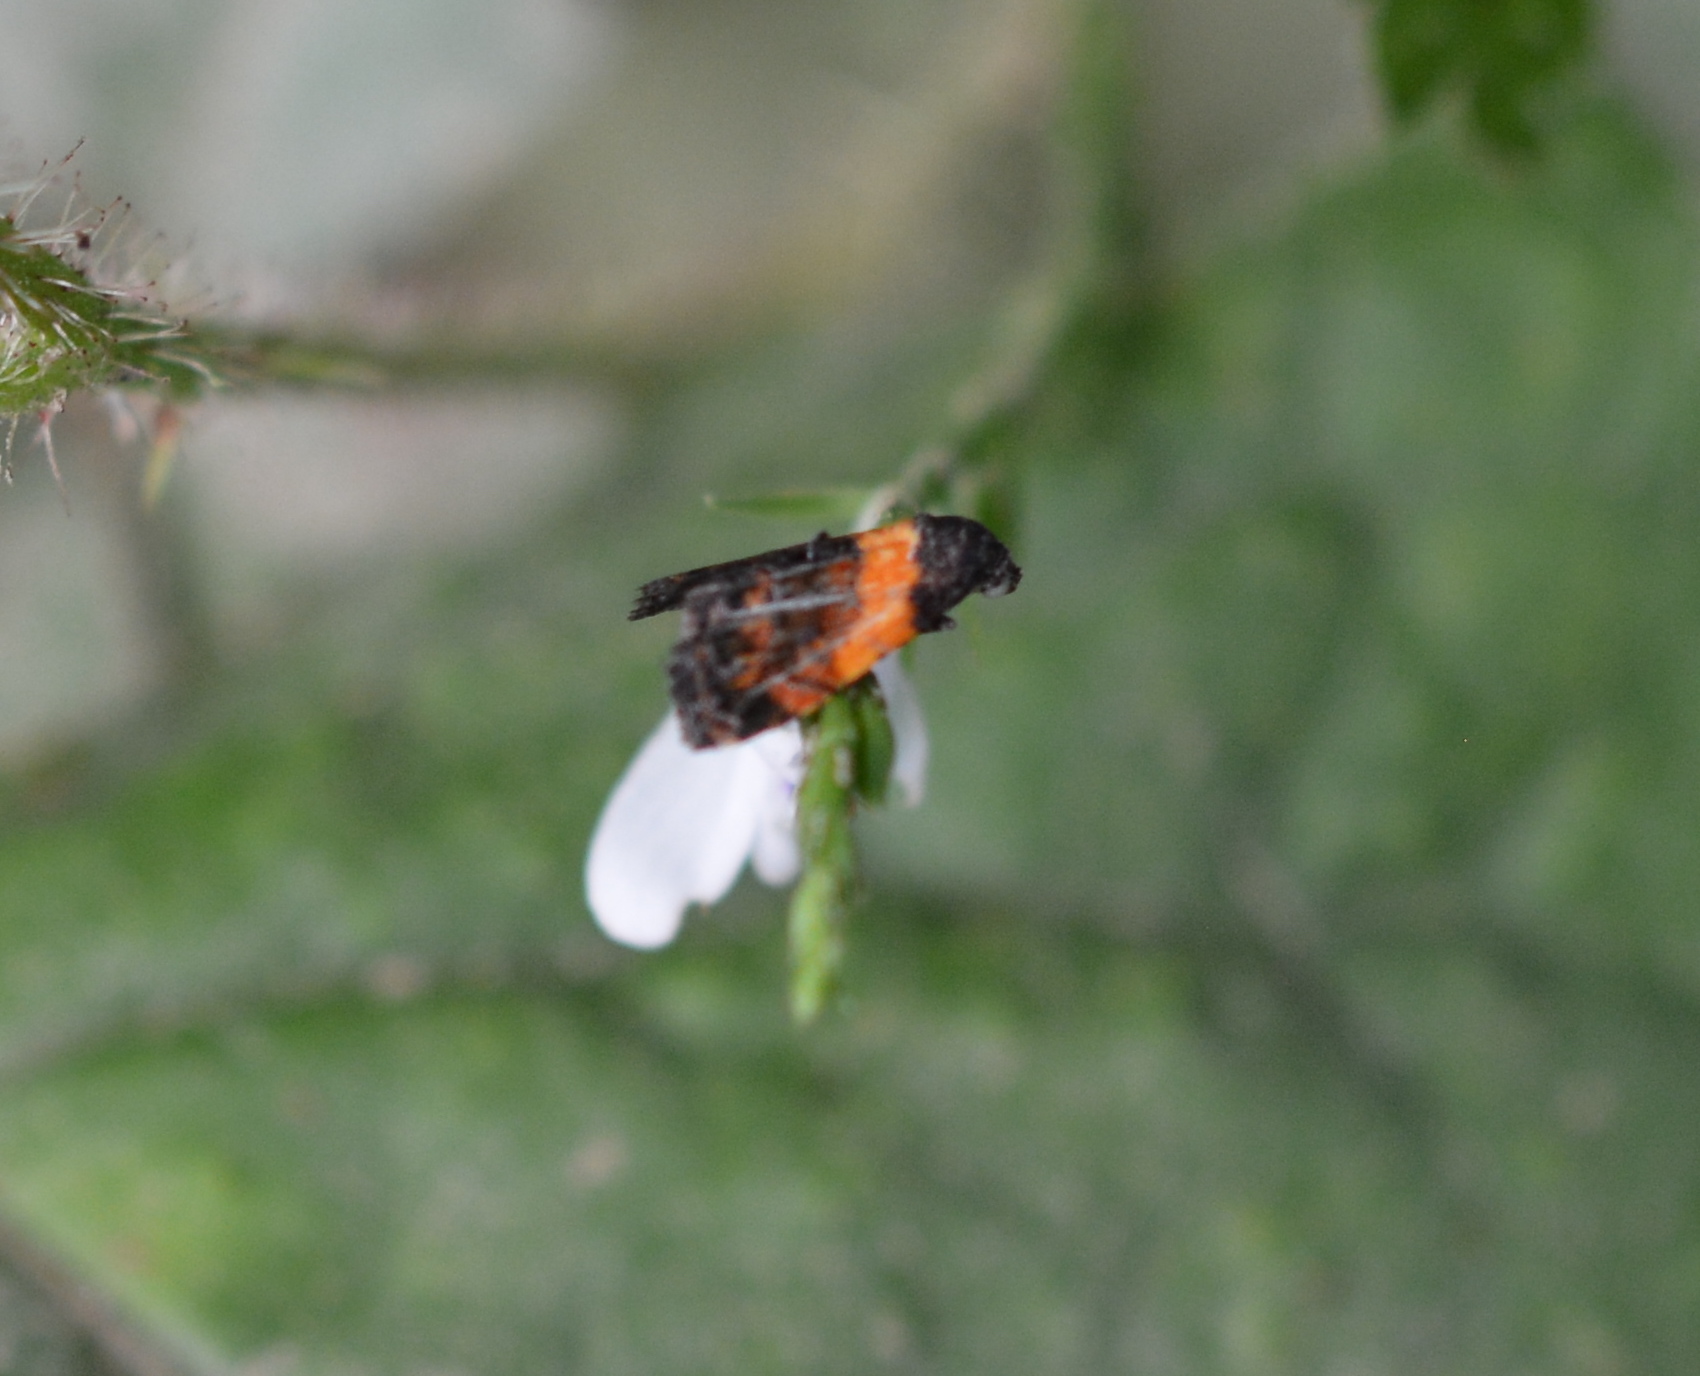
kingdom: Animalia
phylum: Arthropoda
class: Insecta
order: Lepidoptera
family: Noctuidae
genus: Tripudia
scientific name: Tripudia flavofasciata
